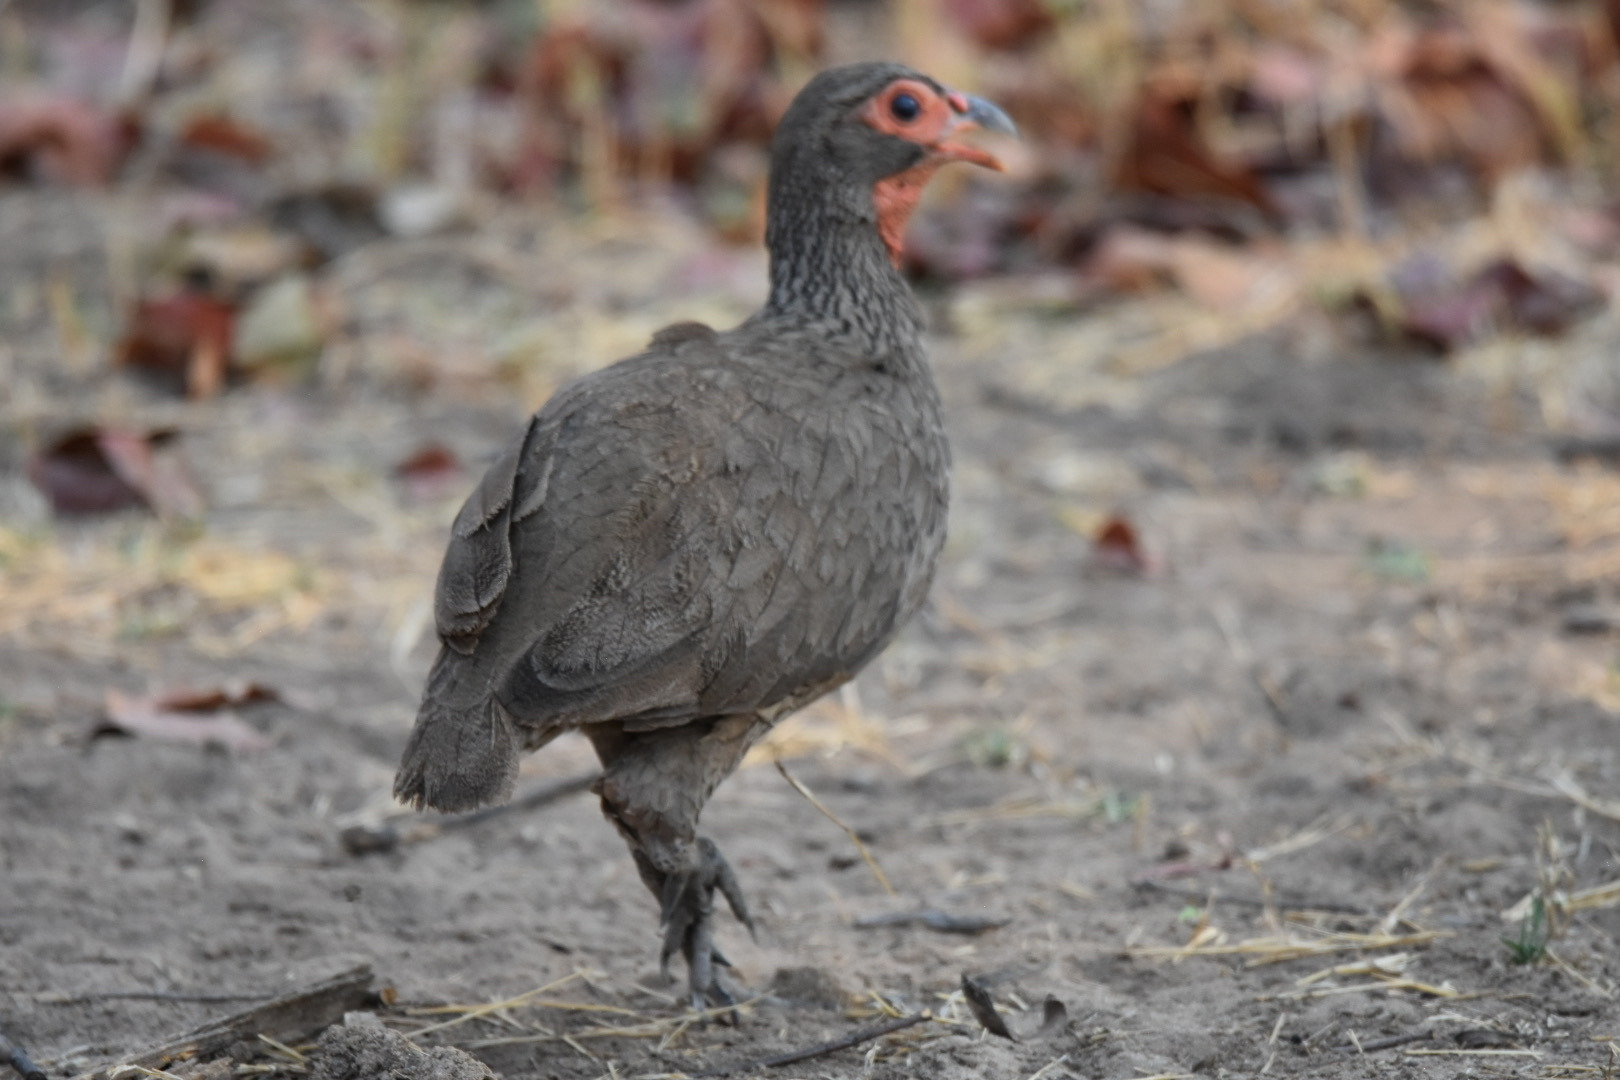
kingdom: Animalia
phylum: Chordata
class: Aves
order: Galliformes
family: Phasianidae
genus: Pternistis
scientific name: Pternistis swainsonii
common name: Swainson's spurfowl
